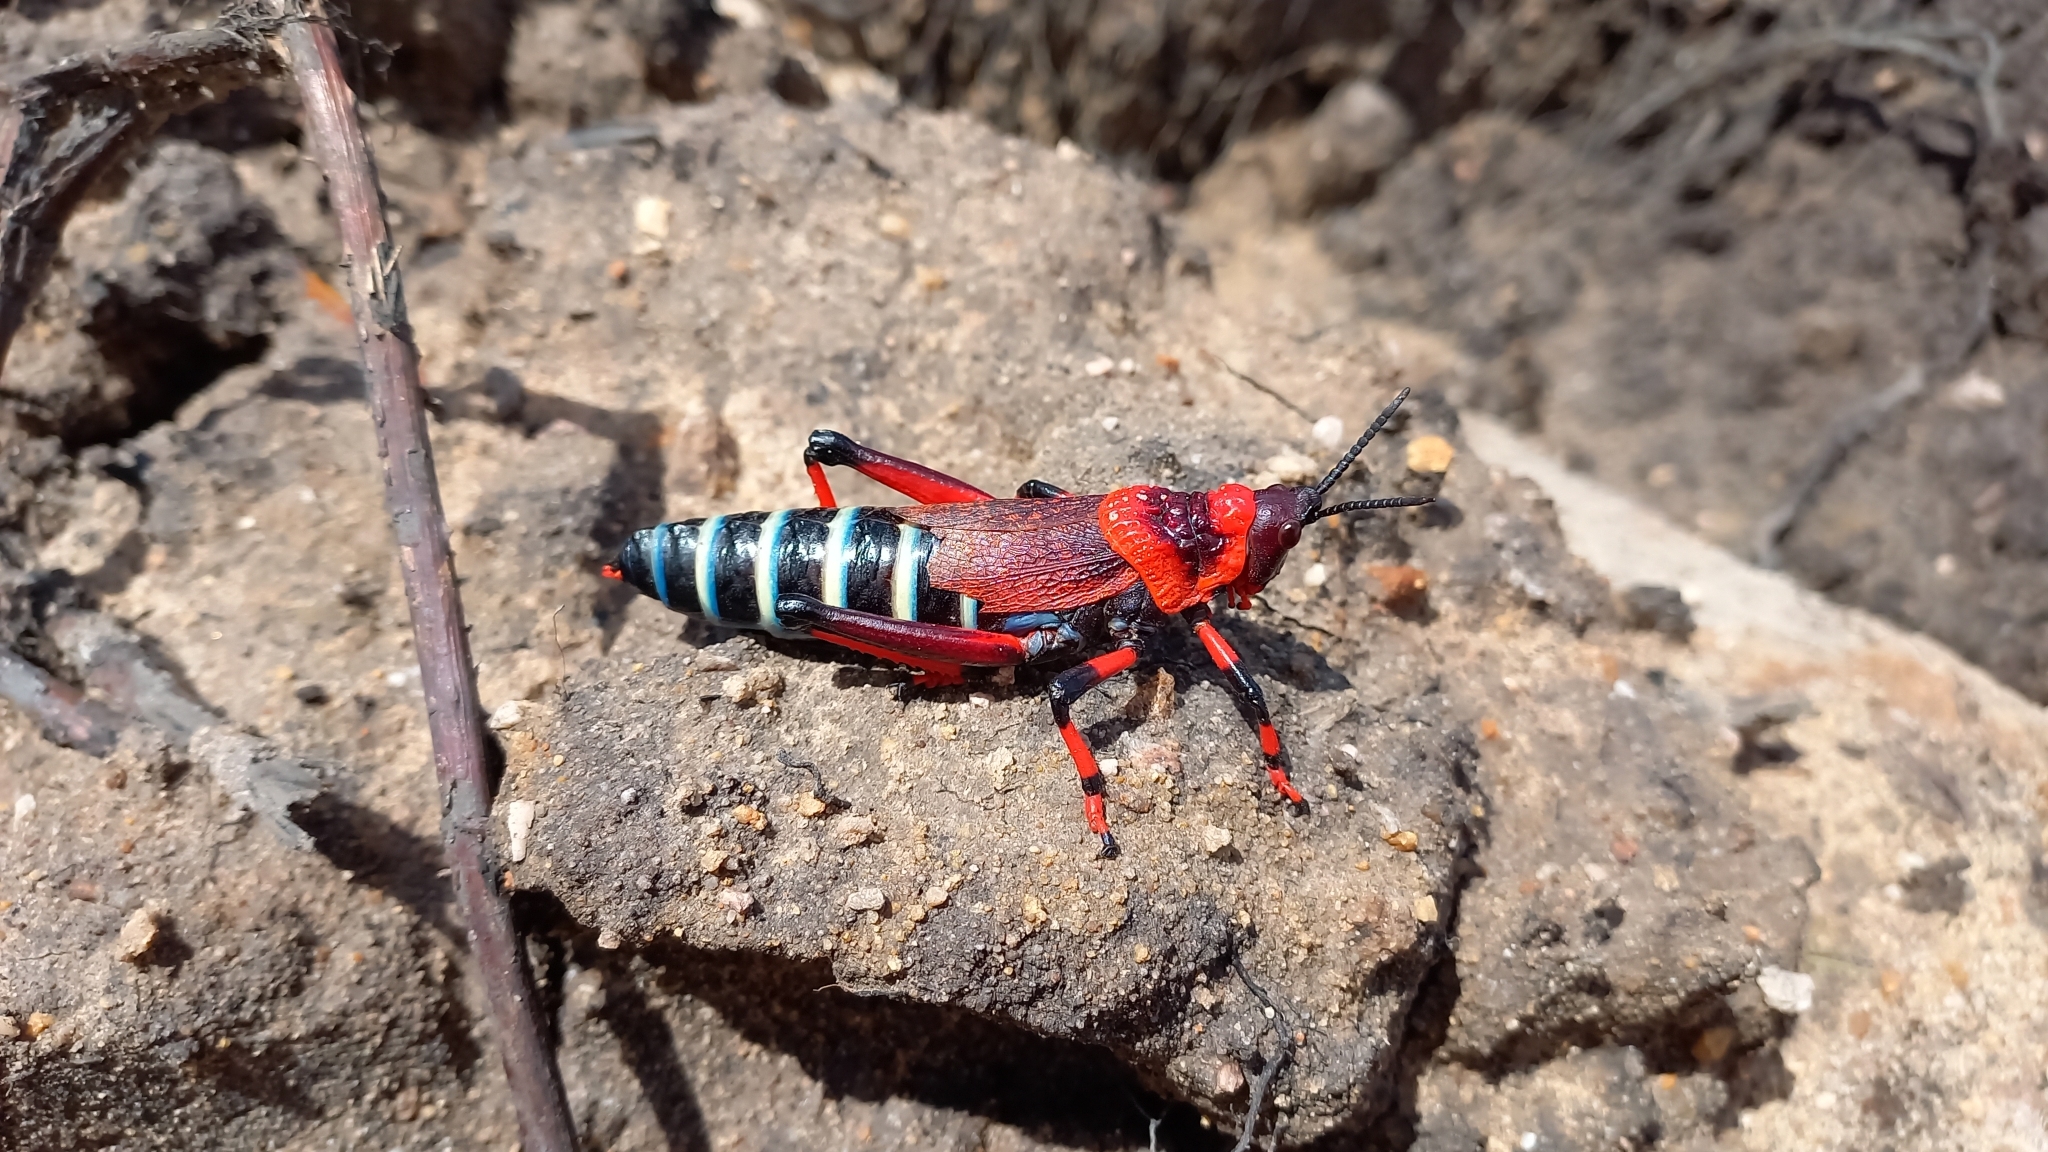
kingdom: Animalia
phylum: Arthropoda
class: Insecta
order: Orthoptera
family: Pyrgomorphidae
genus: Dictyophorus
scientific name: Dictyophorus spumans
